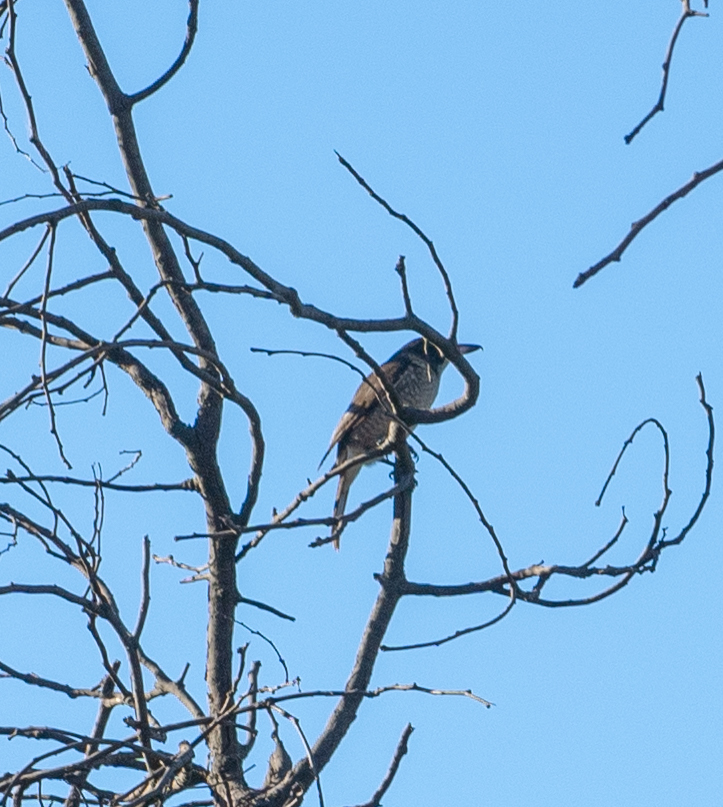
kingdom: Animalia
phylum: Chordata
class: Aves
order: Passeriformes
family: Cracticidae
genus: Cracticus
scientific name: Cracticus torquatus
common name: Grey butcherbird
